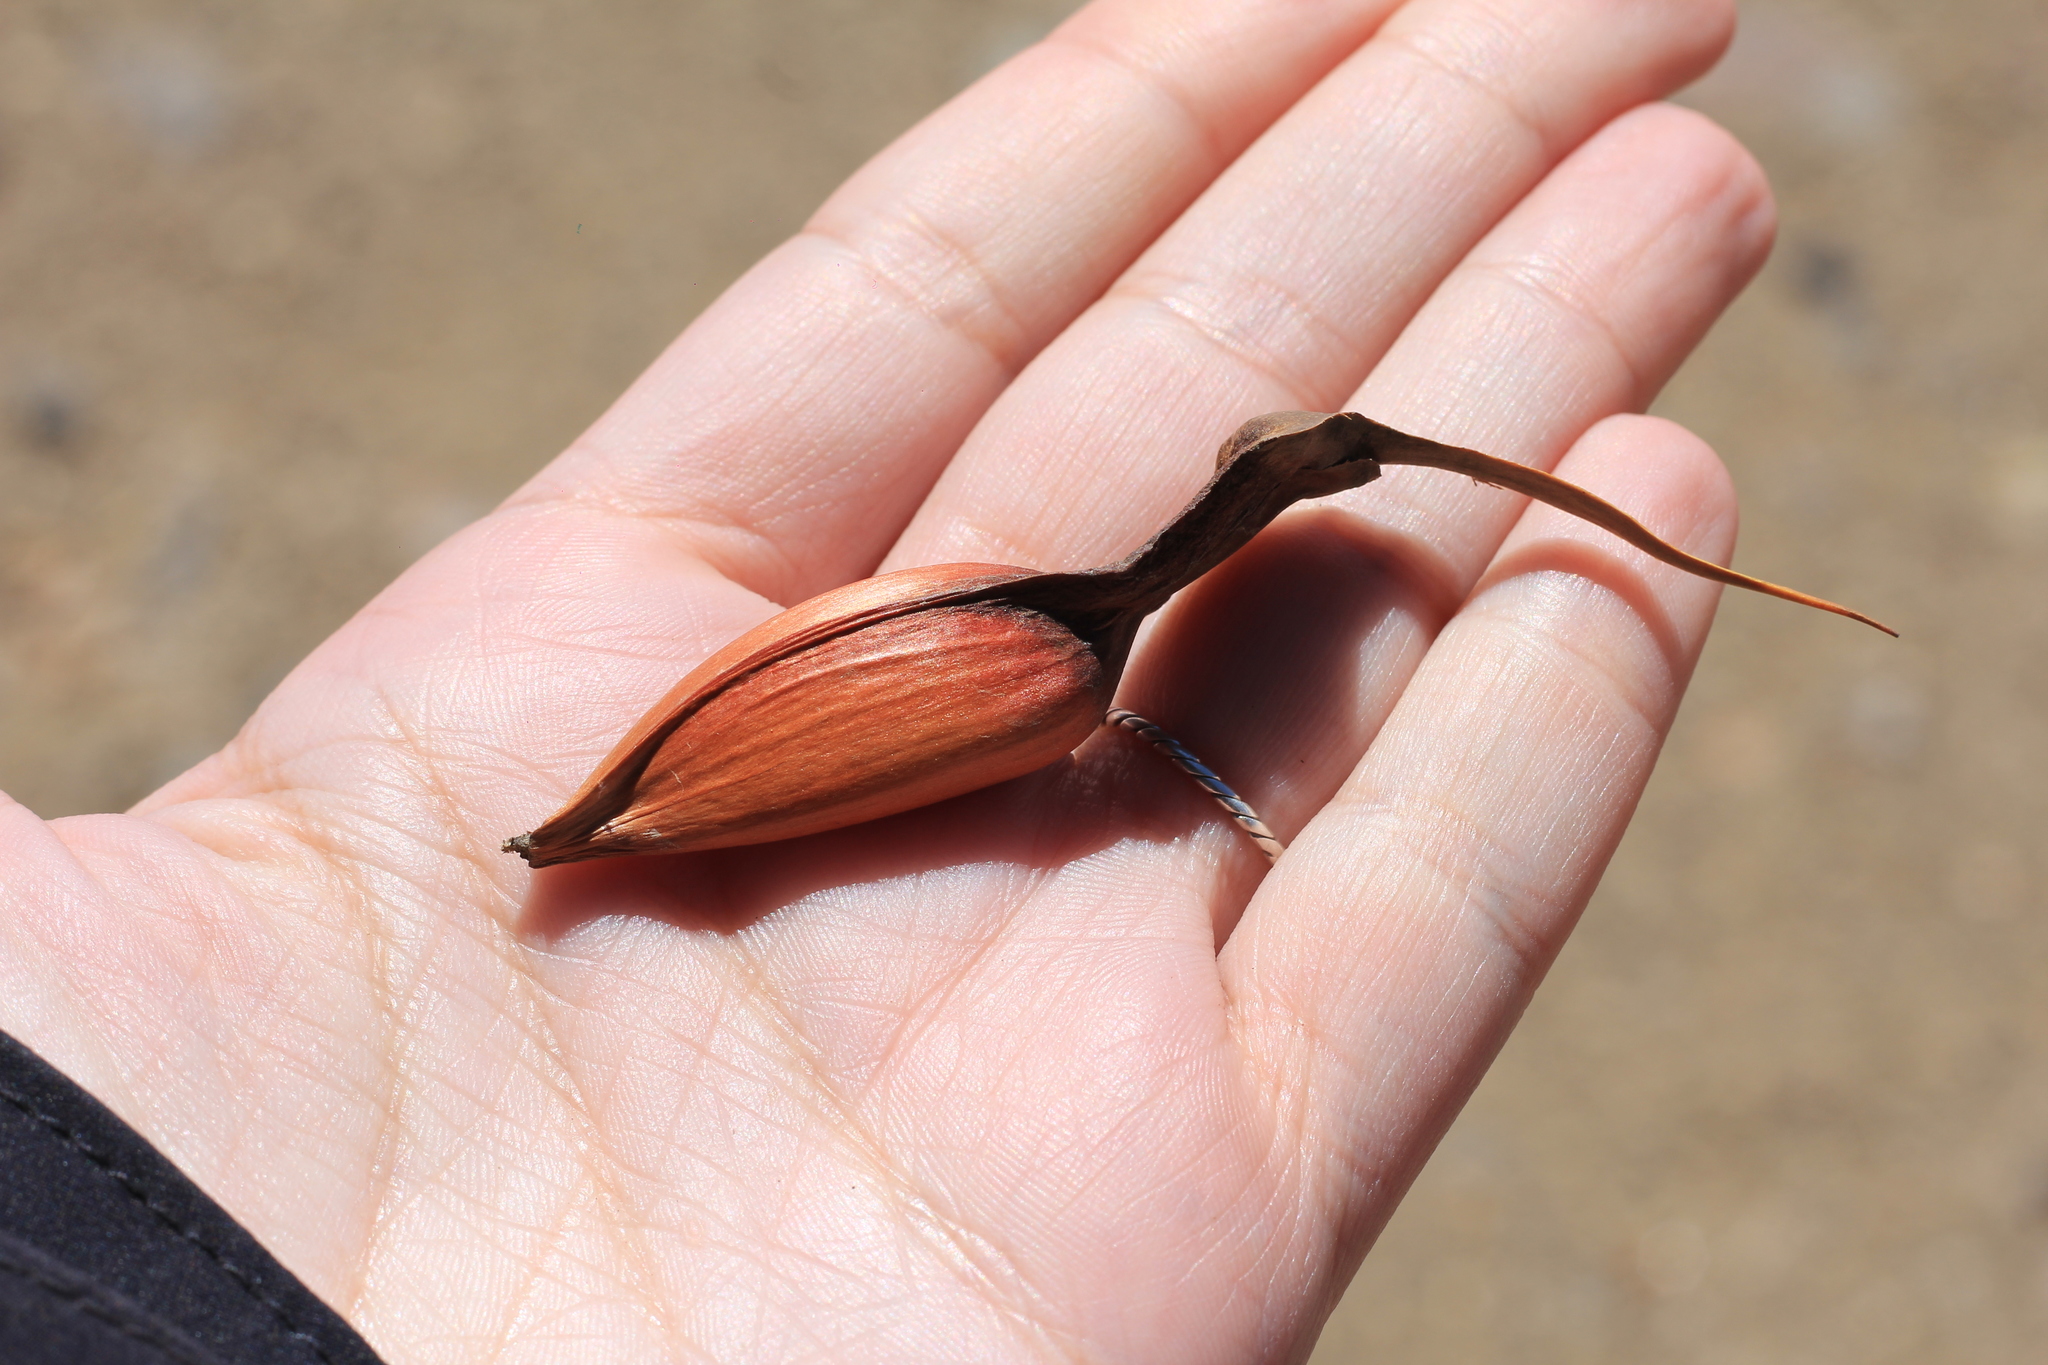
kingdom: Plantae
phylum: Tracheophyta
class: Pinopsida
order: Pinales
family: Araucariaceae
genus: Araucaria
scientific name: Araucaria araucana
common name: Monkey-puzzle
